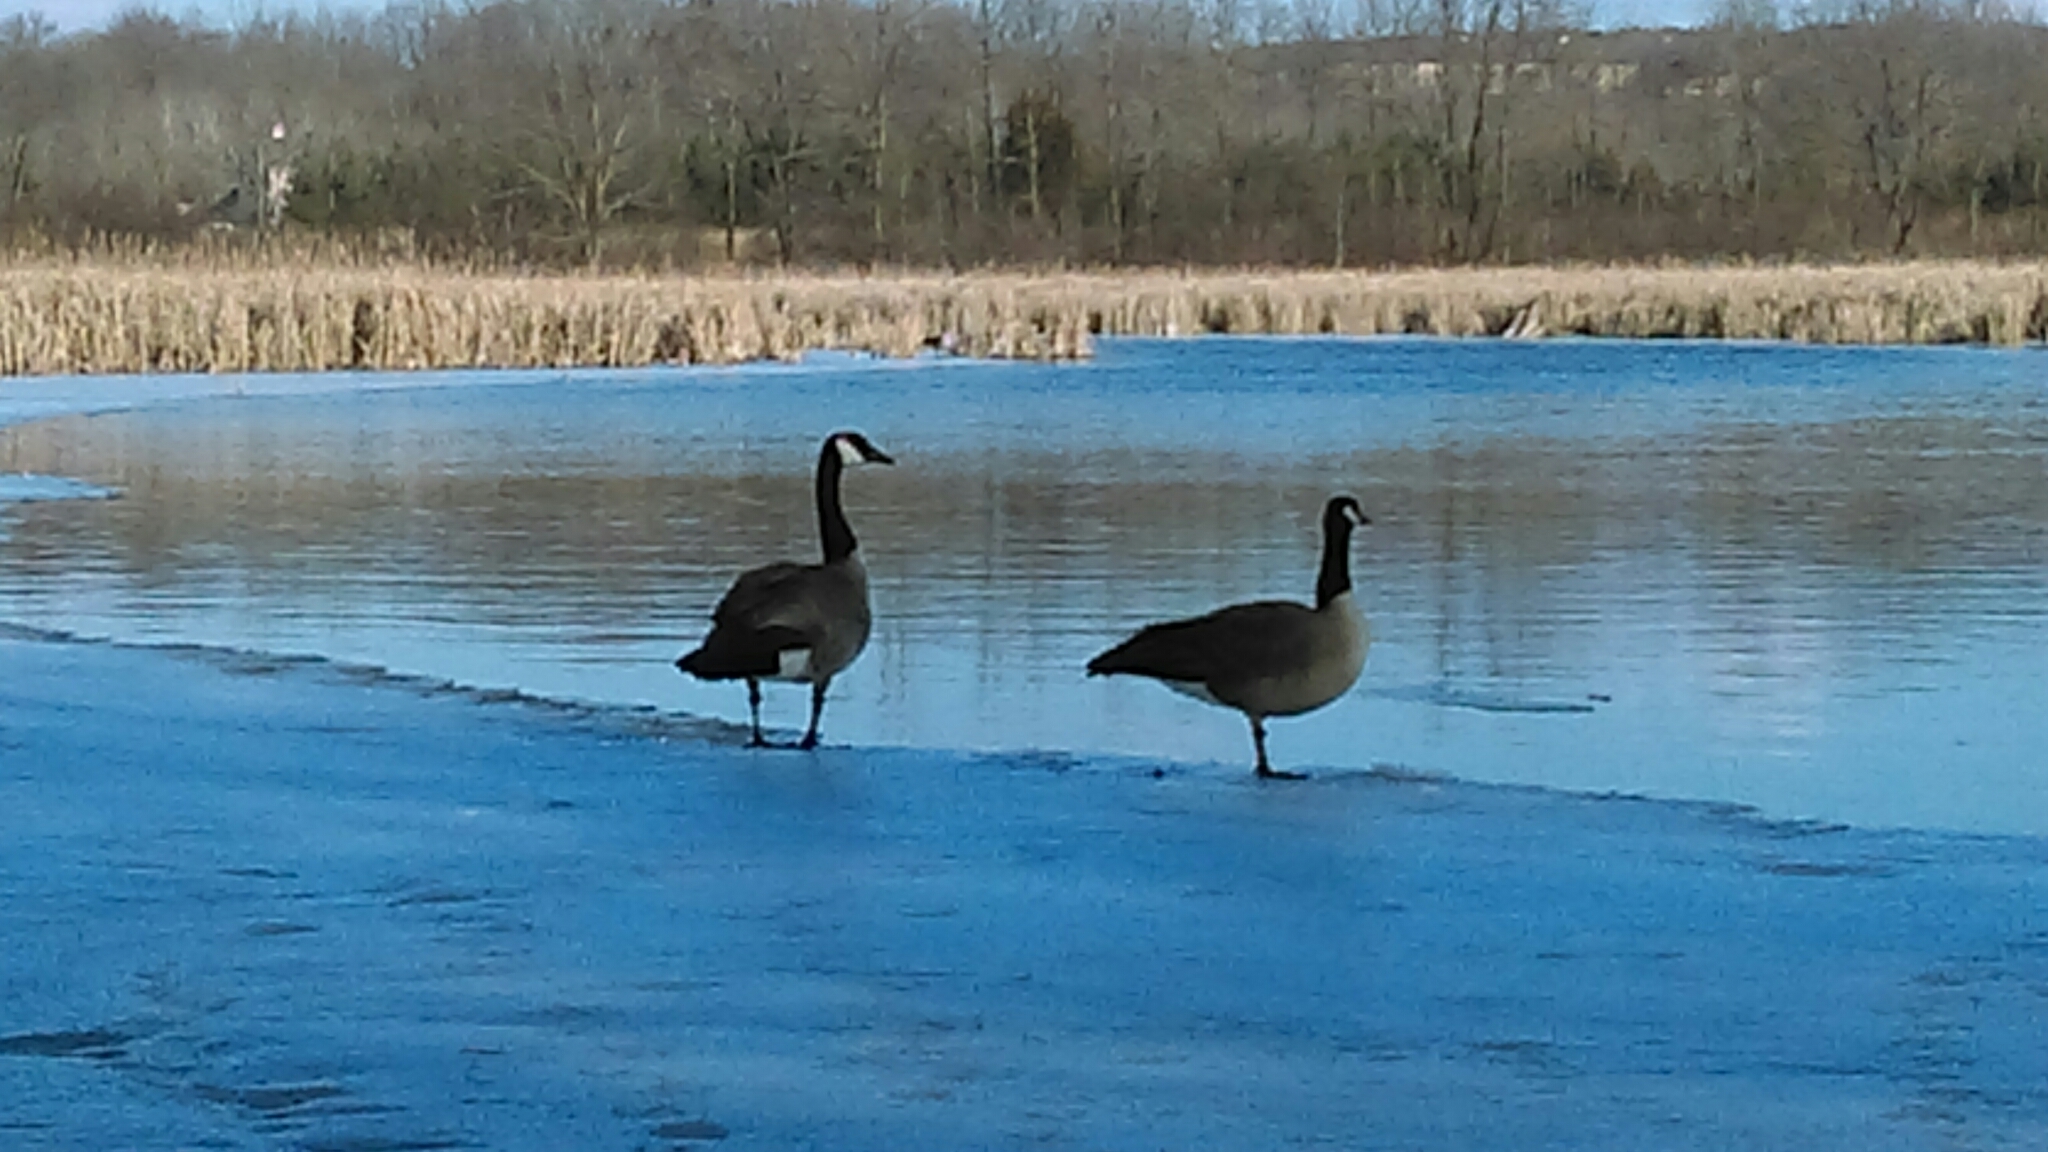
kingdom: Animalia
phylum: Chordata
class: Aves
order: Anseriformes
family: Anatidae
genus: Branta
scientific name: Branta canadensis
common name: Canada goose
